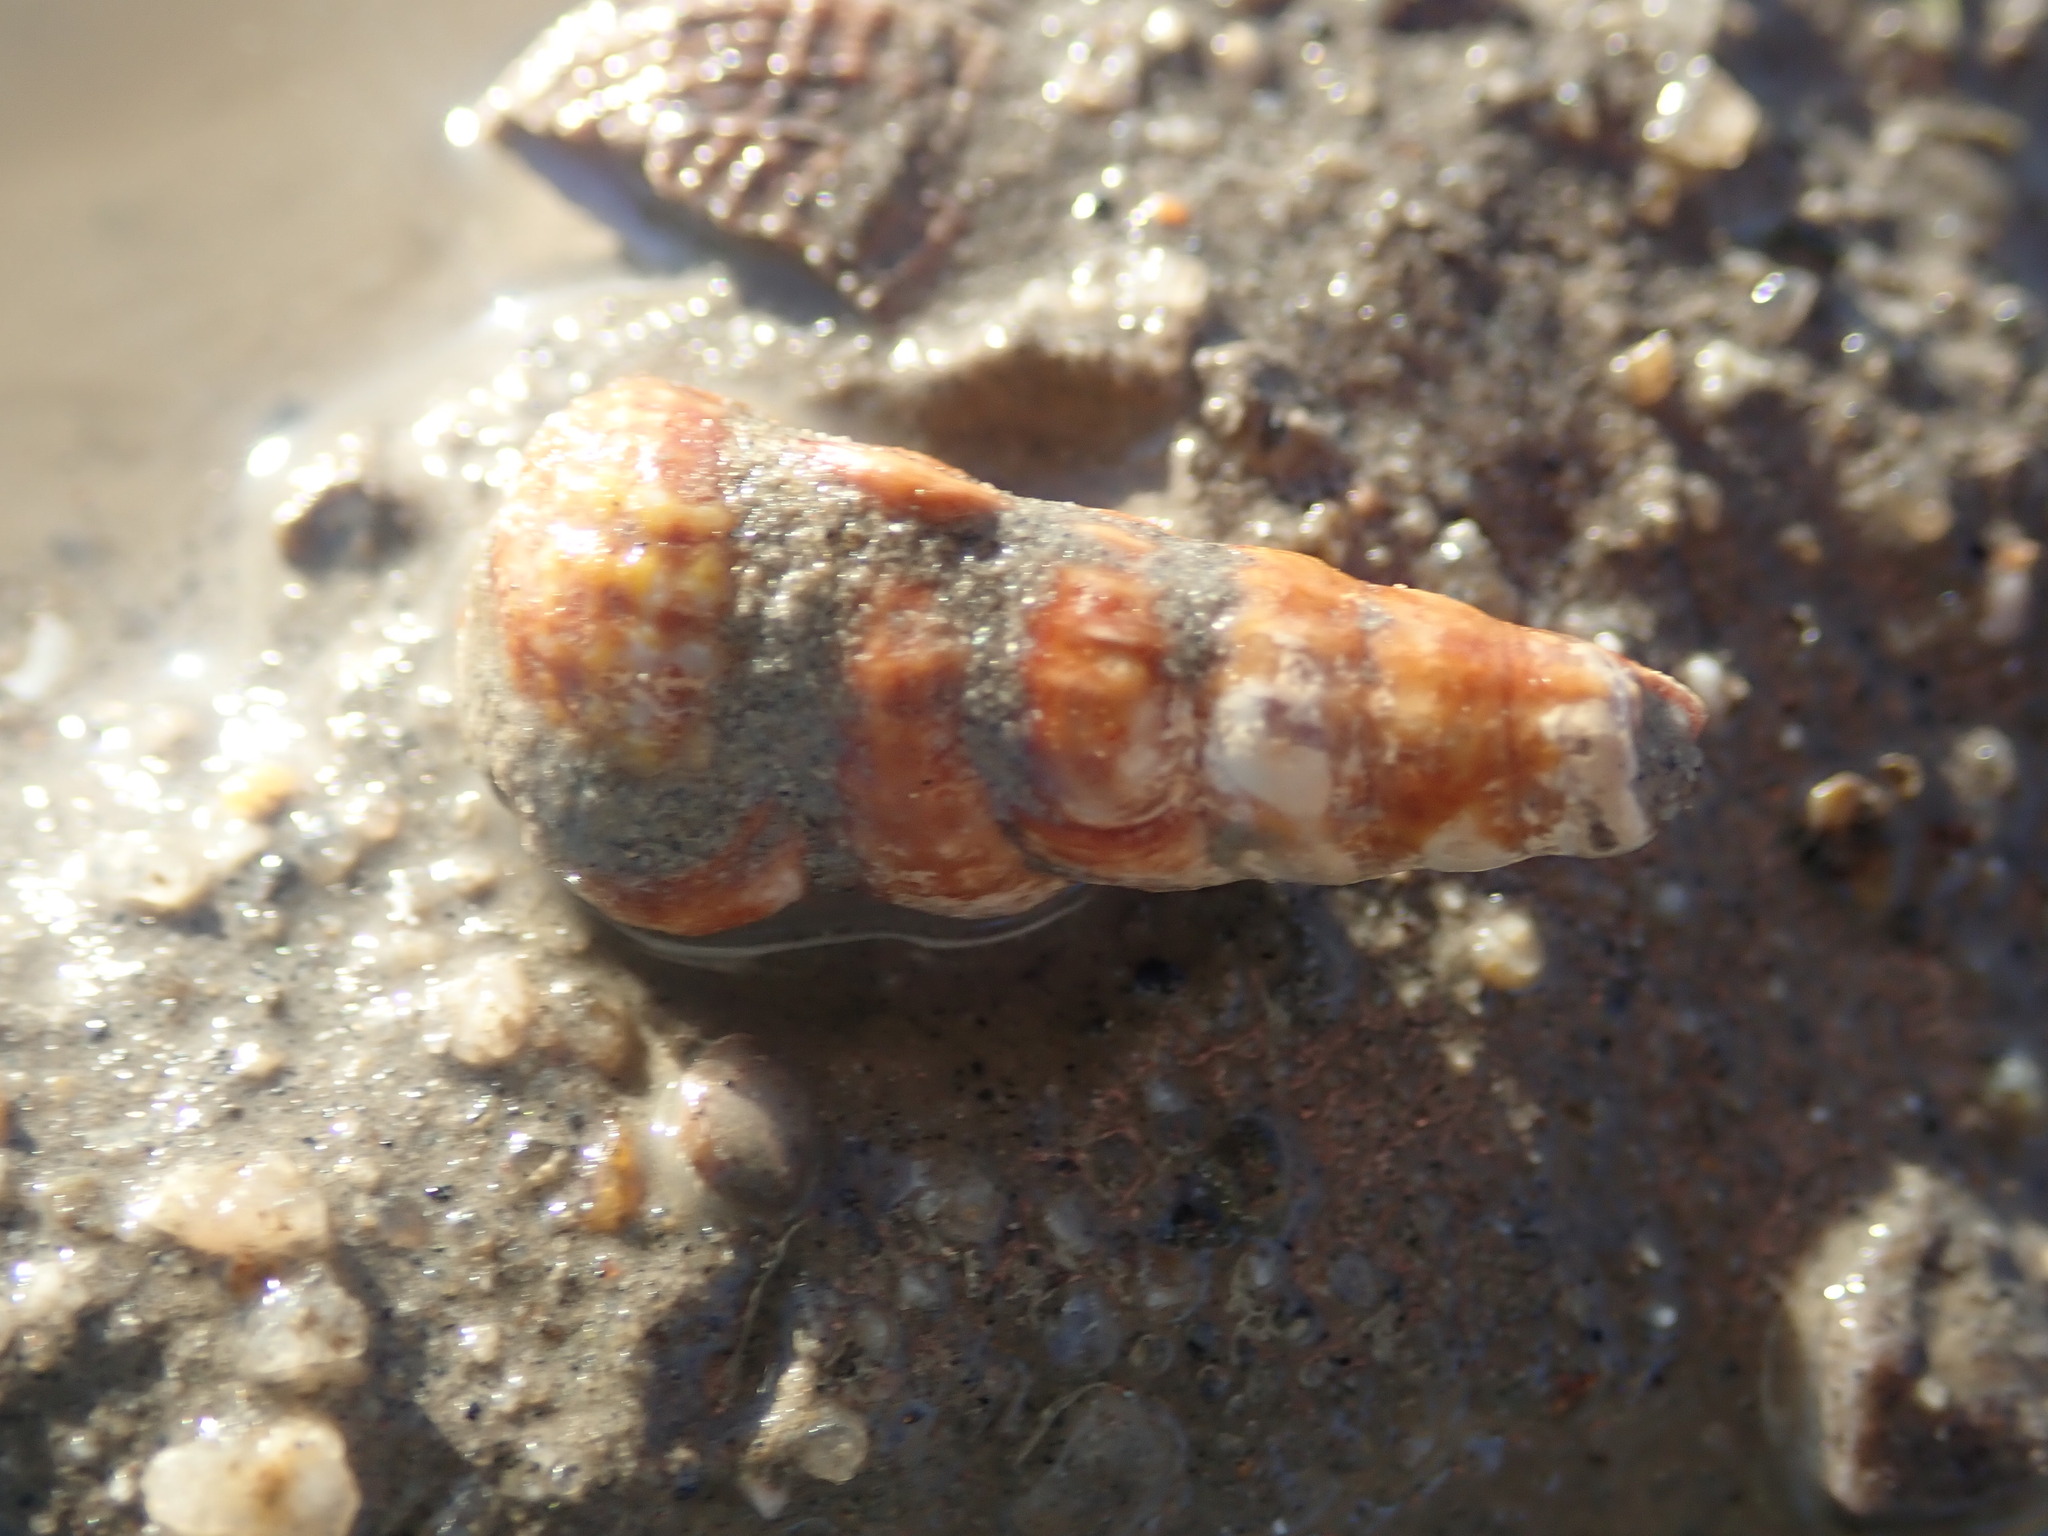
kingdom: Animalia
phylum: Mollusca
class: Gastropoda
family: Potamididae
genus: Cerithideopsis
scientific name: Cerithideopsis californica
